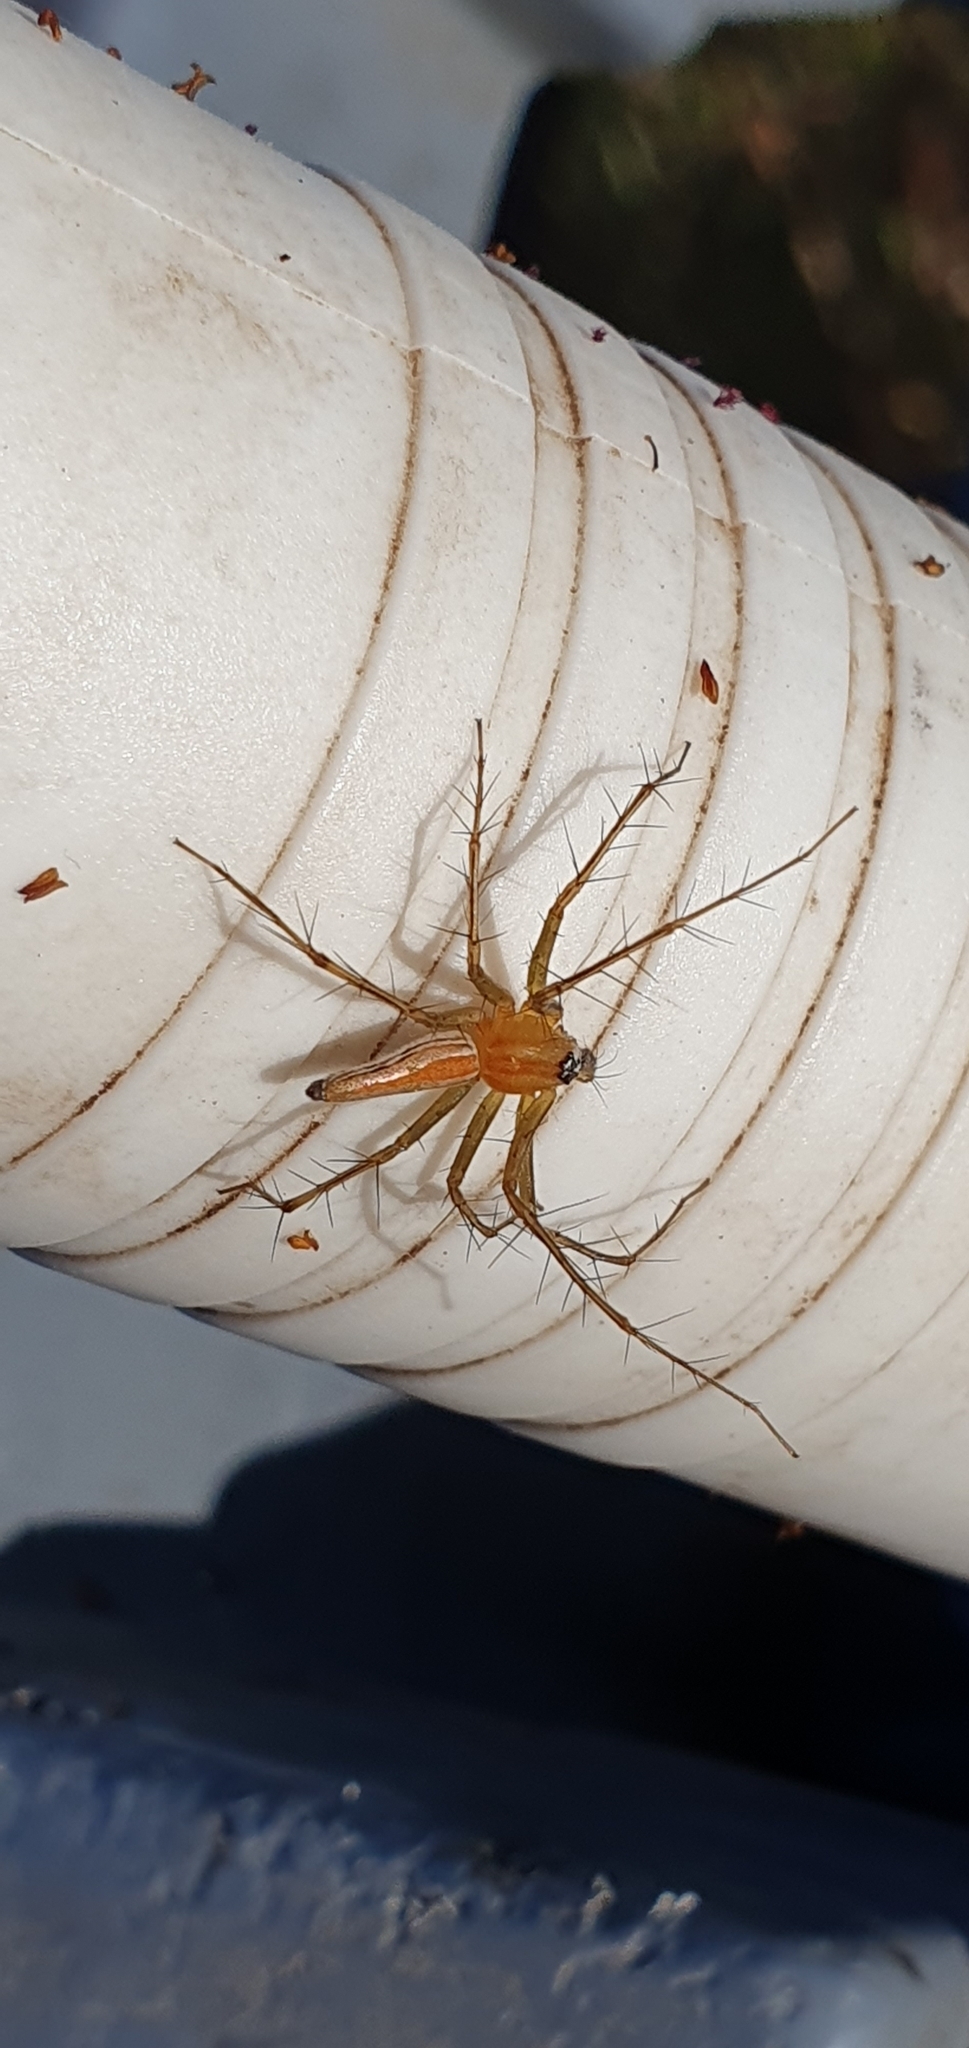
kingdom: Animalia
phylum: Arthropoda
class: Arachnida
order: Araneae
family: Oxyopidae
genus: Oxyopes
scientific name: Oxyopes macilentus
